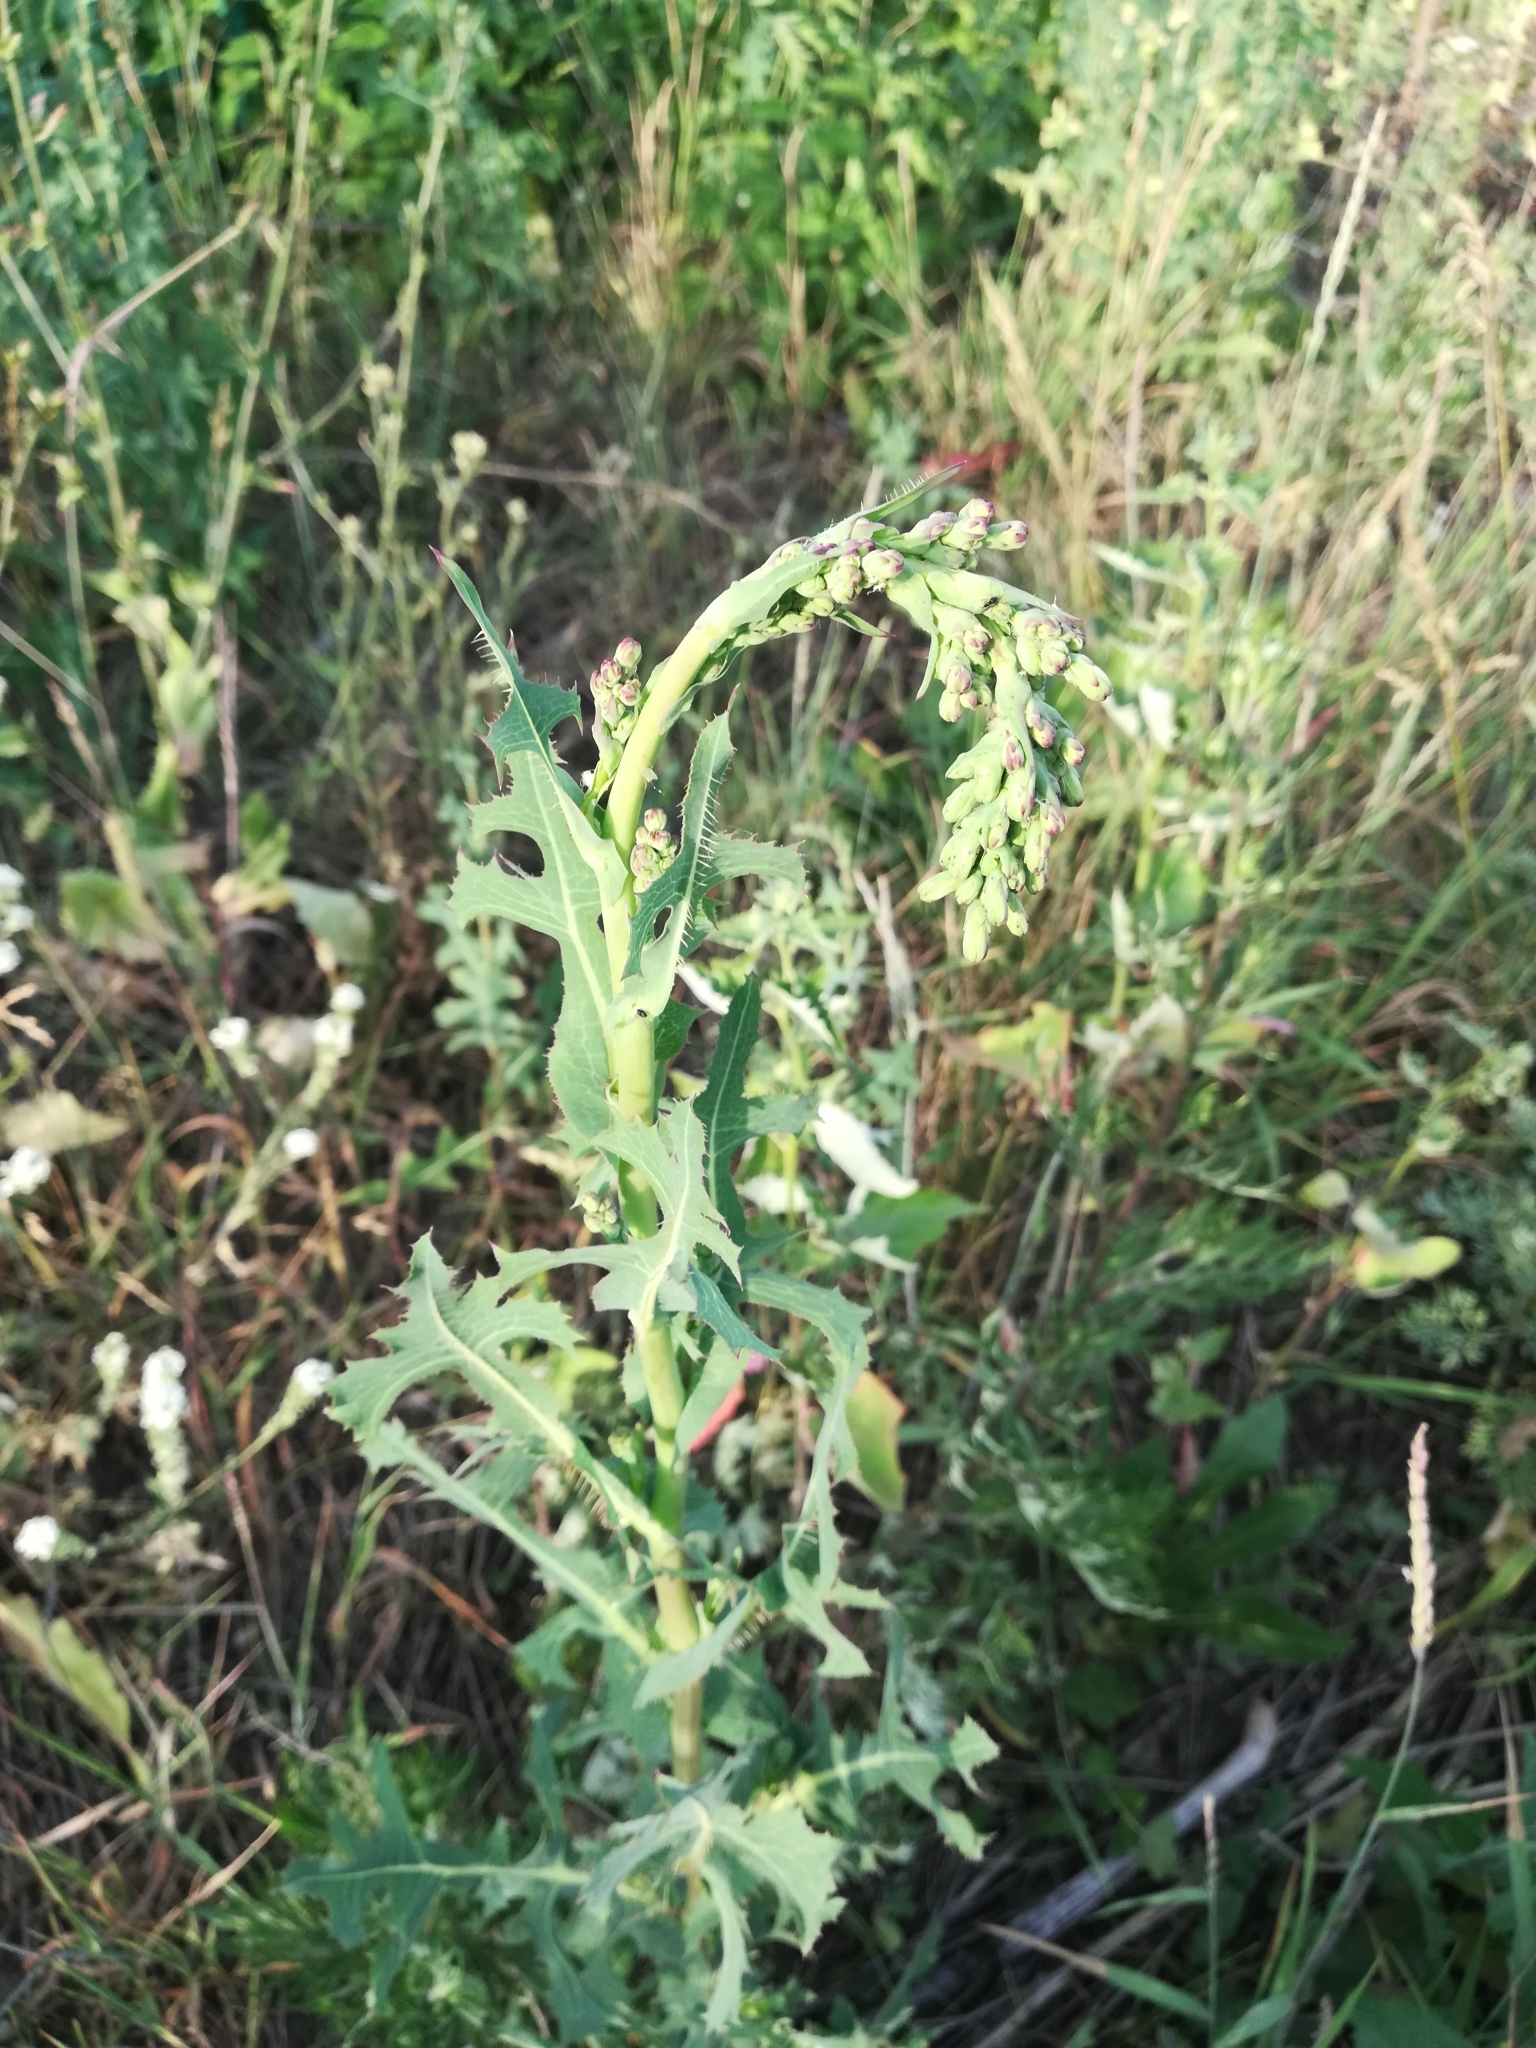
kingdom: Plantae
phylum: Tracheophyta
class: Magnoliopsida
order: Asterales
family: Asteraceae
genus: Lactuca
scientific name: Lactuca serriola
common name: Prickly lettuce
